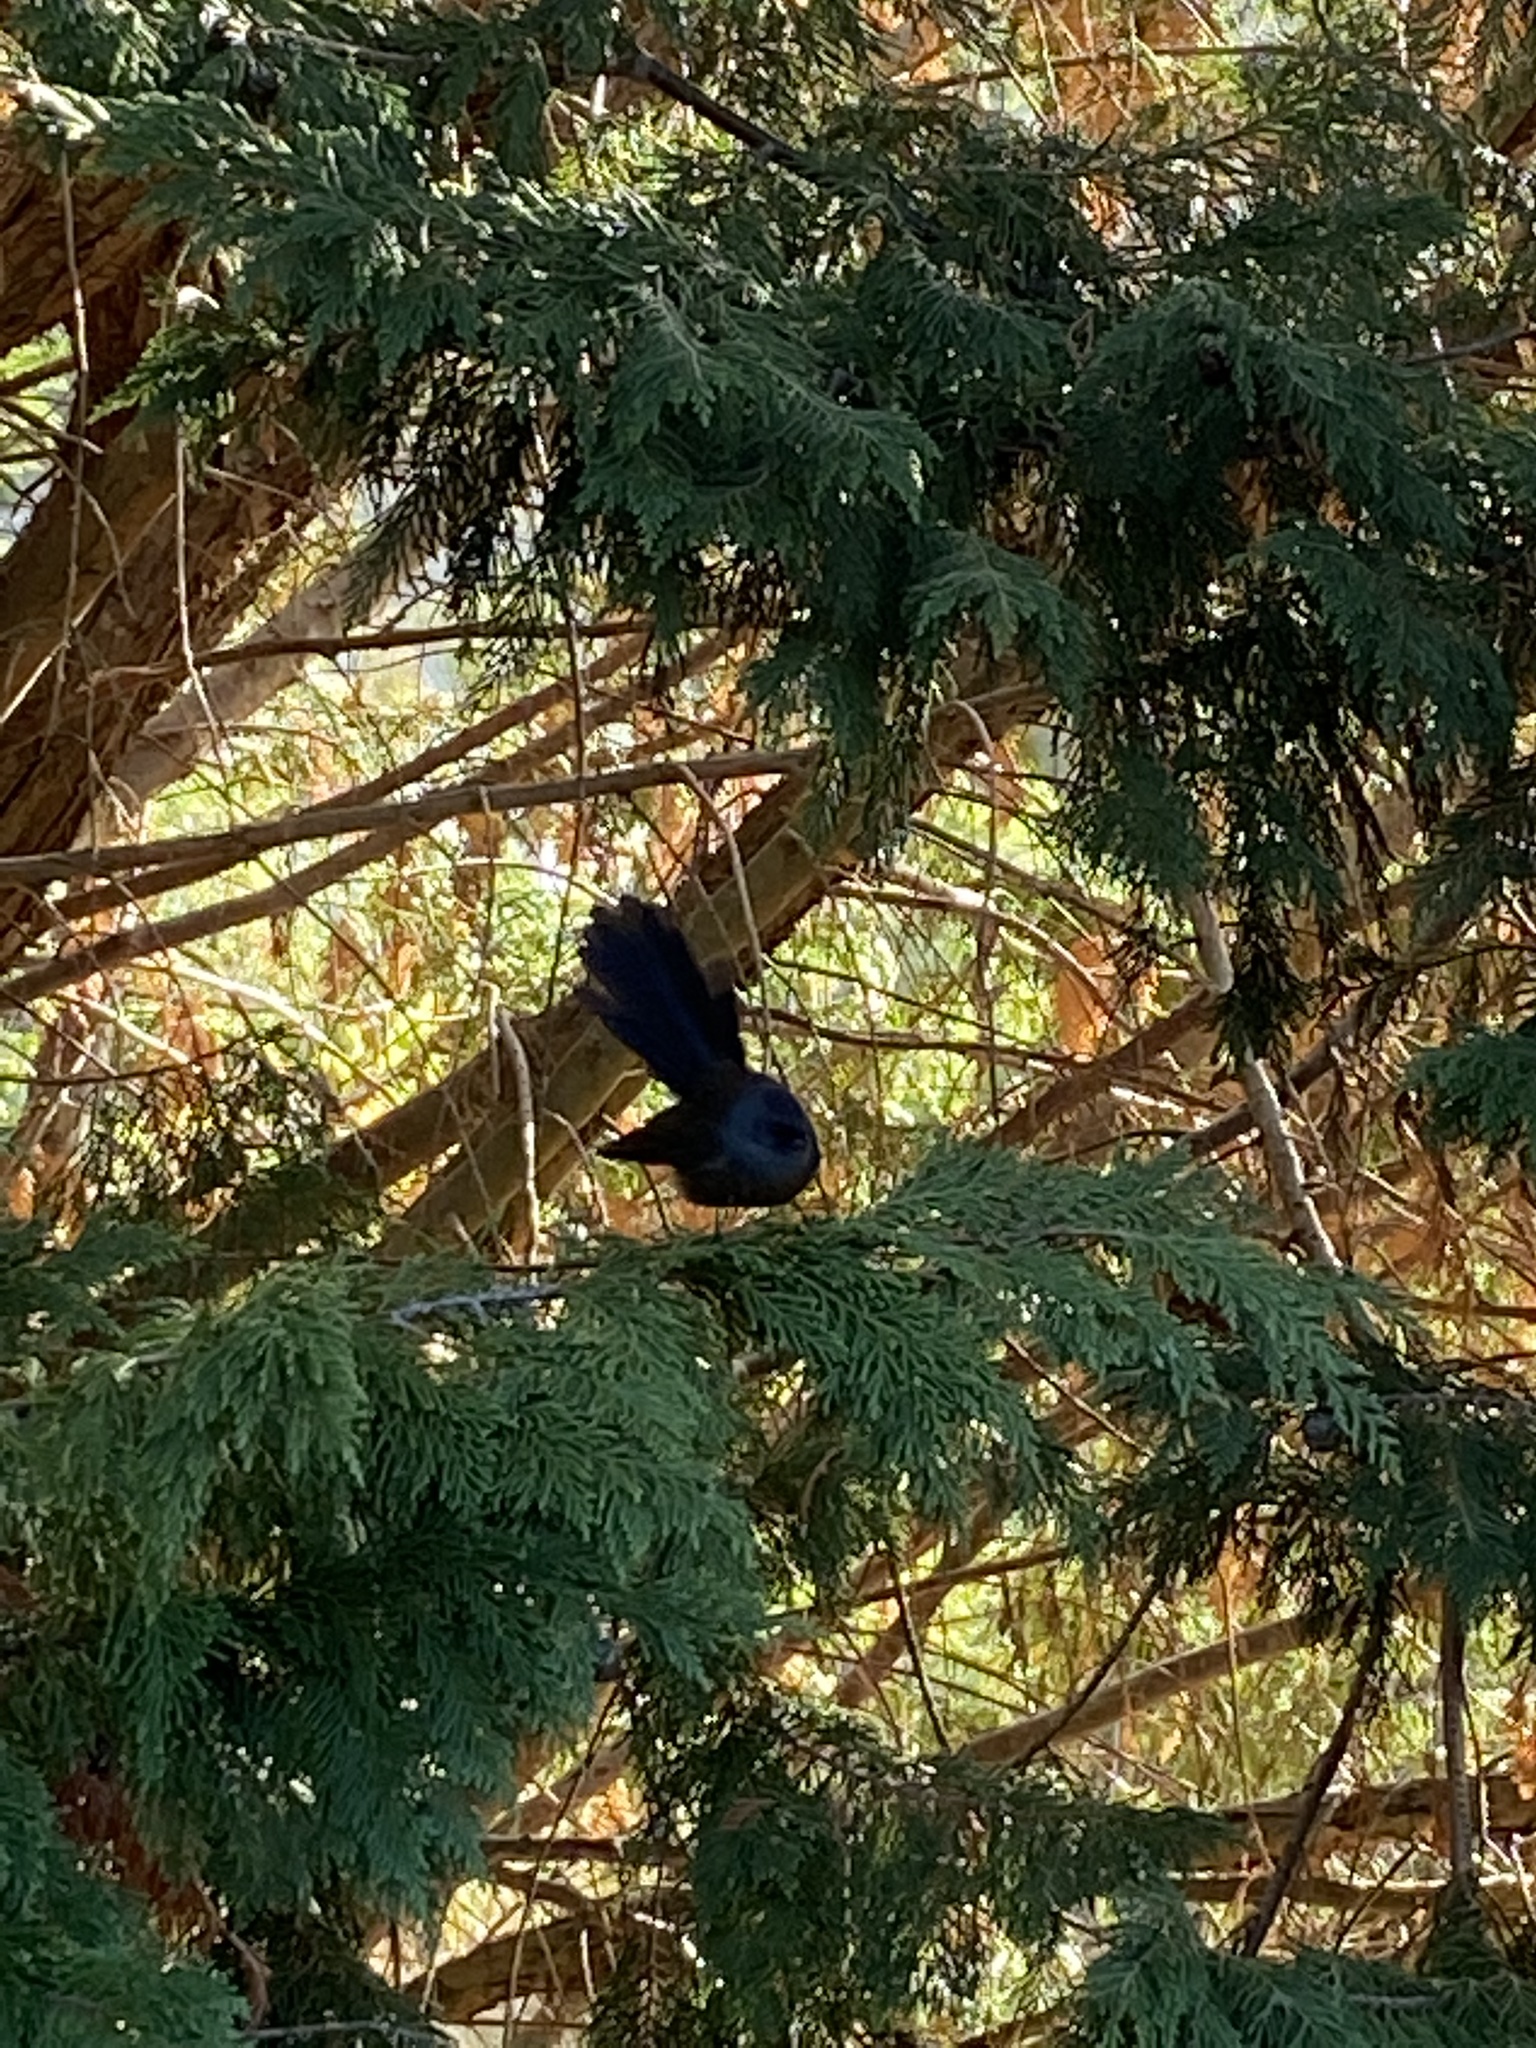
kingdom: Animalia
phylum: Chordata
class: Aves
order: Passeriformes
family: Rhipiduridae
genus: Rhipidura
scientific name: Rhipidura fuliginosa
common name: New zealand fantail
